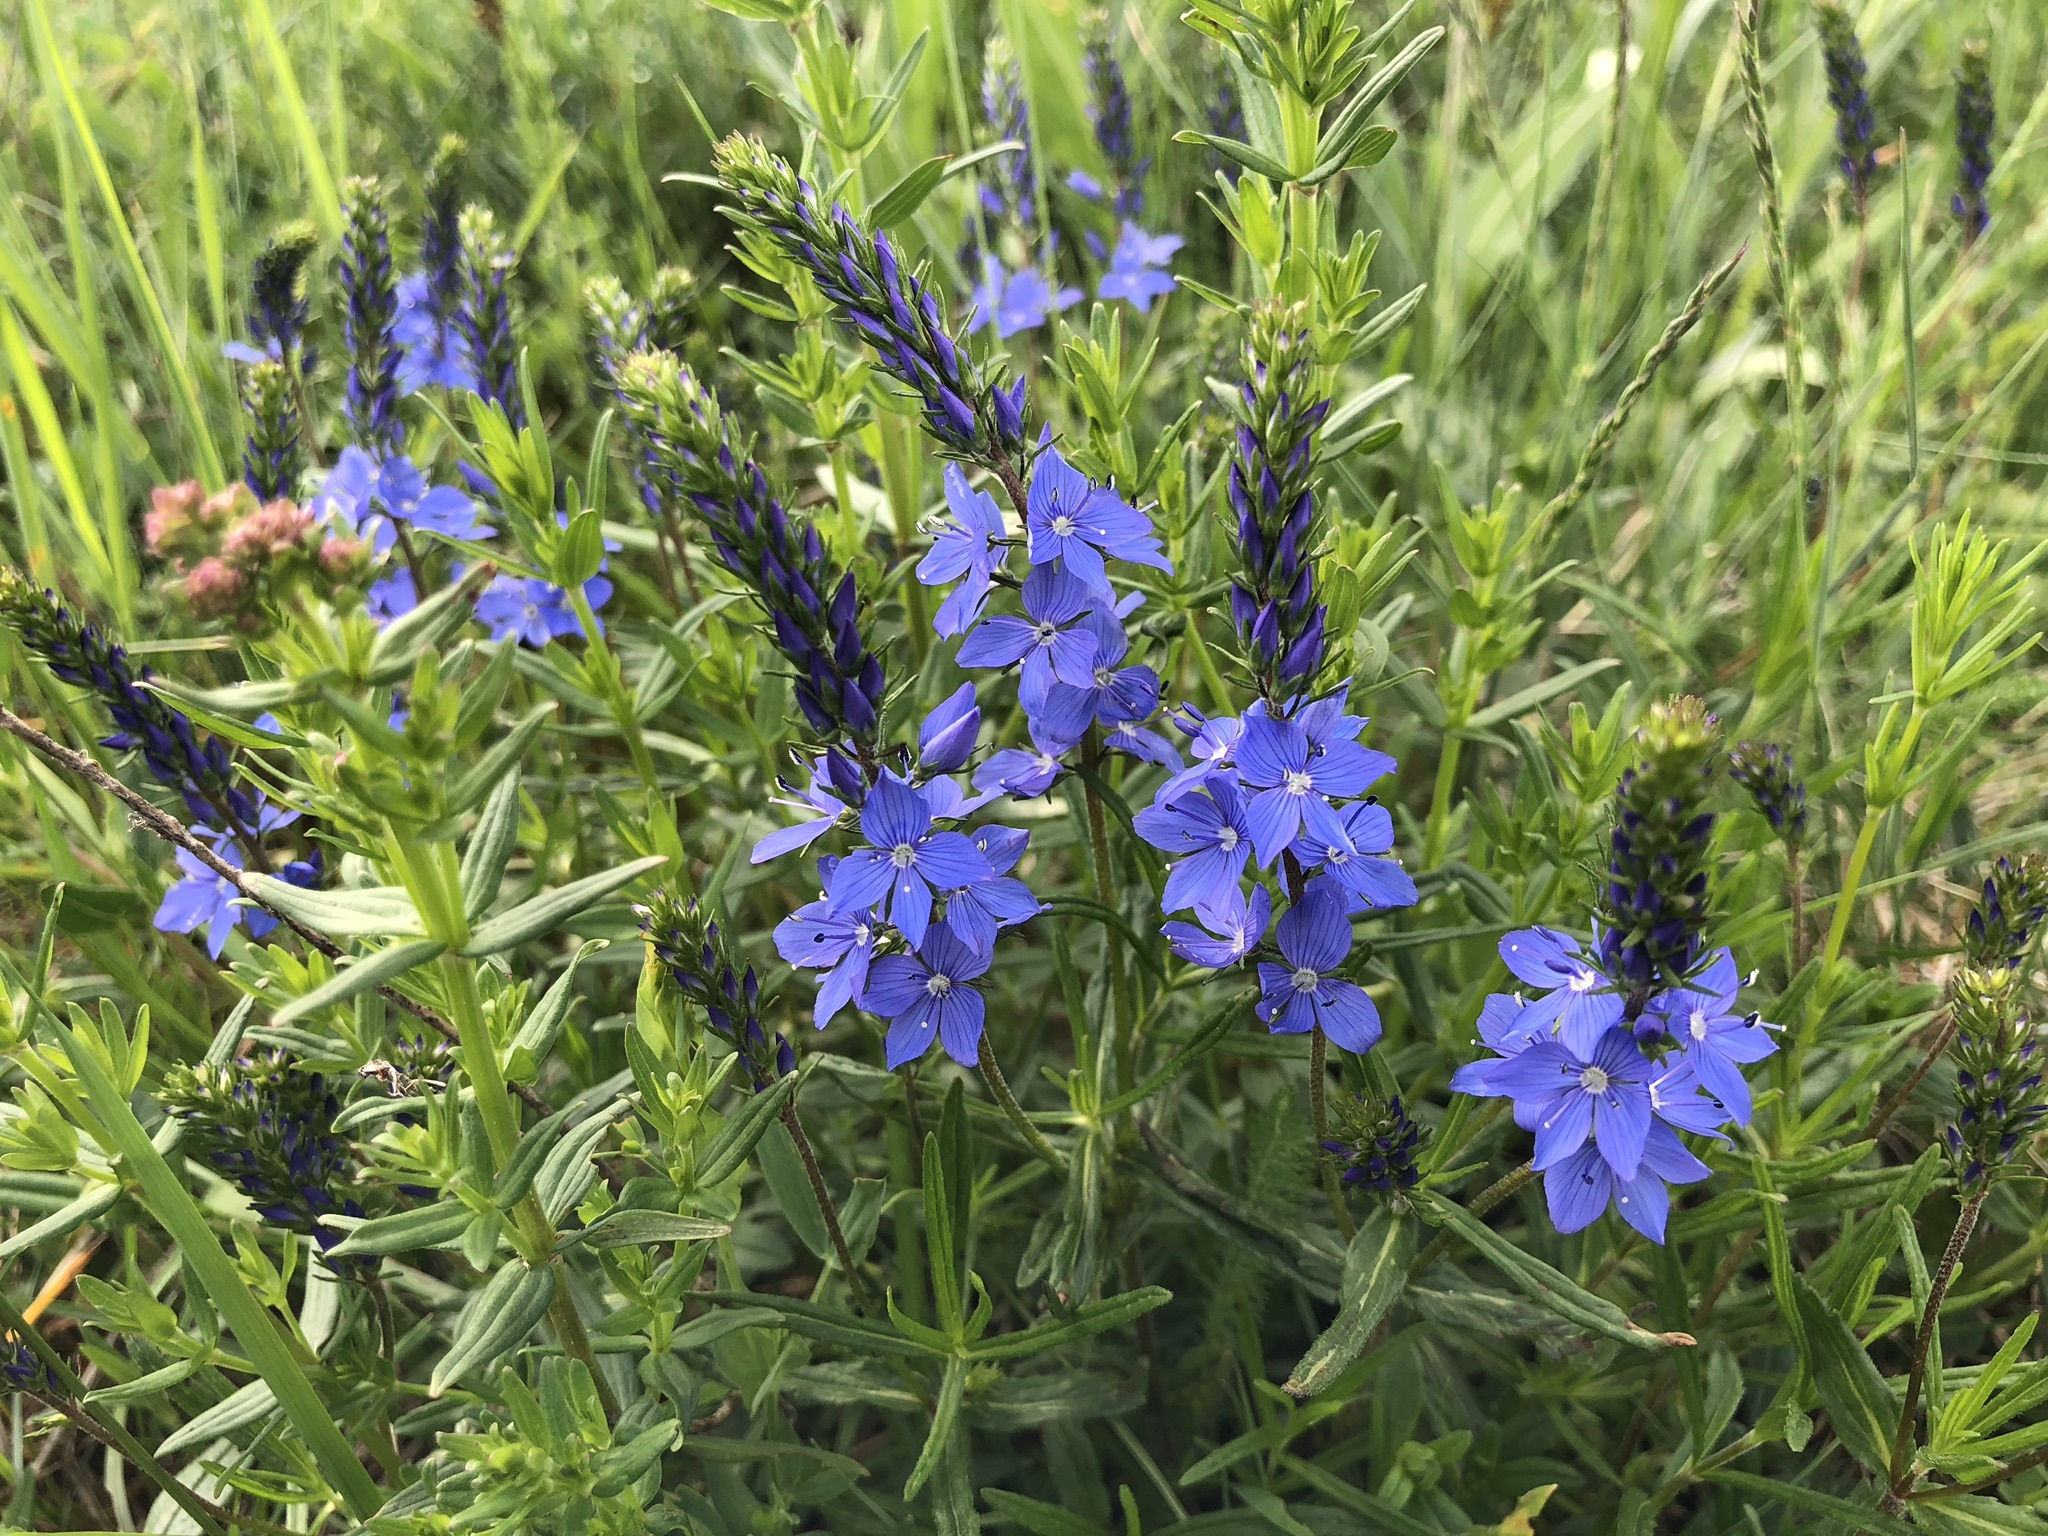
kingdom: Plantae
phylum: Tracheophyta
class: Magnoliopsida
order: Lamiales
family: Plantaginaceae
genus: Veronica
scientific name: Veronica teucrium
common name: Large speedwell
